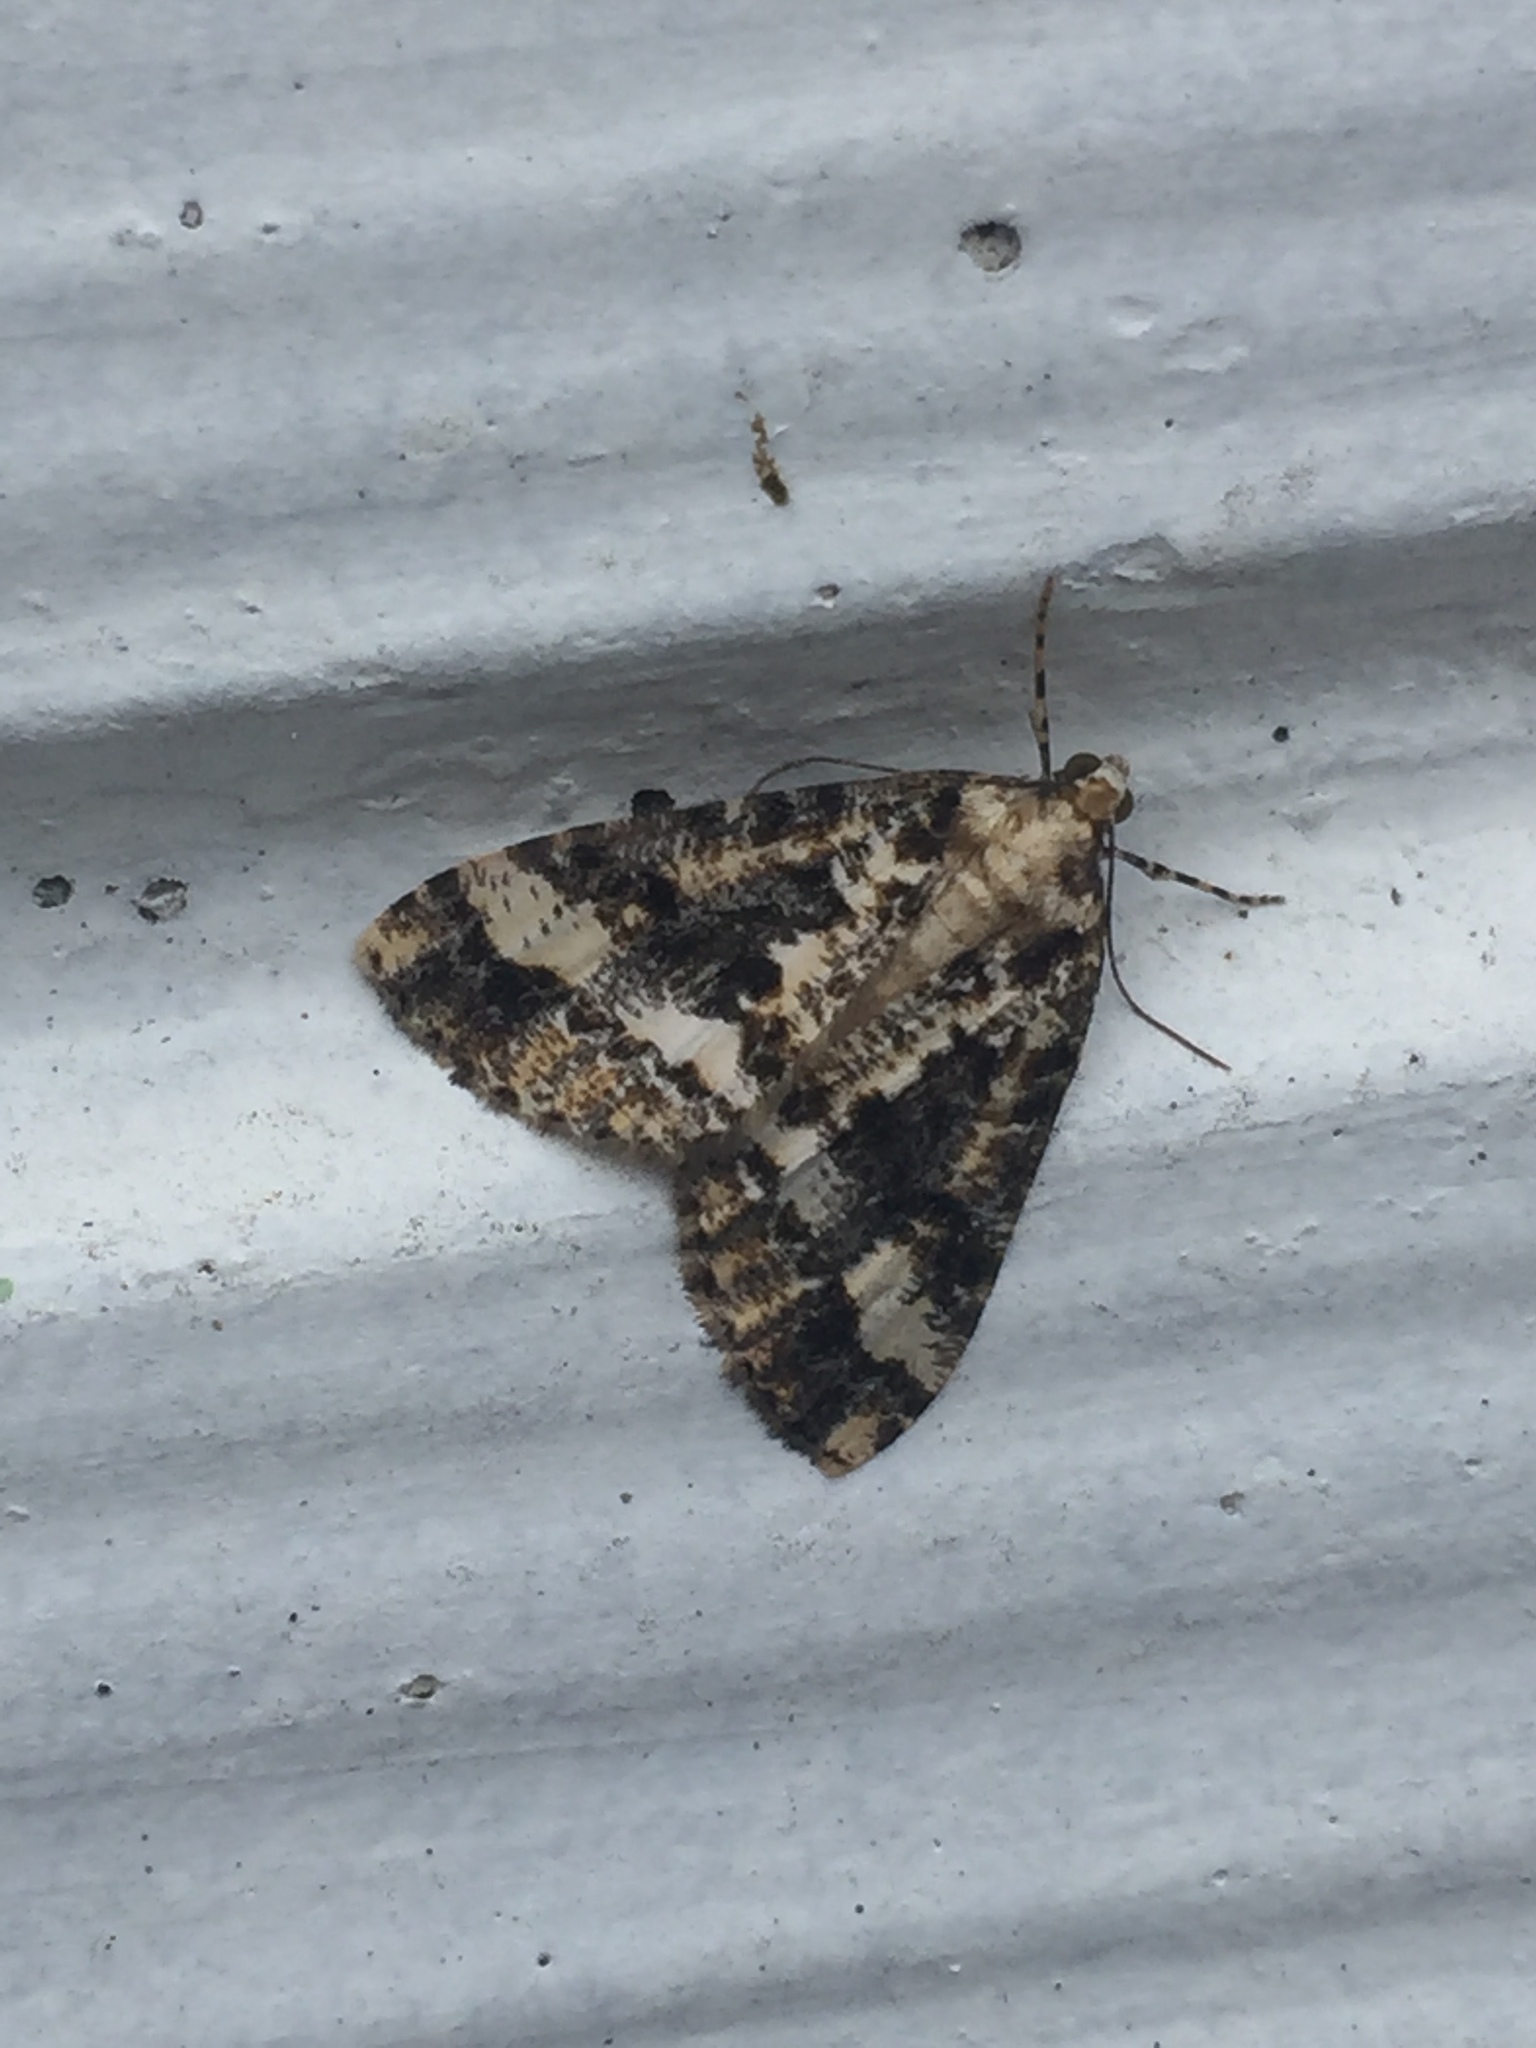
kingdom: Animalia
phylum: Arthropoda
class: Insecta
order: Lepidoptera
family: Geometridae
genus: Pseudocoremia
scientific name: Pseudocoremia leucelaea
